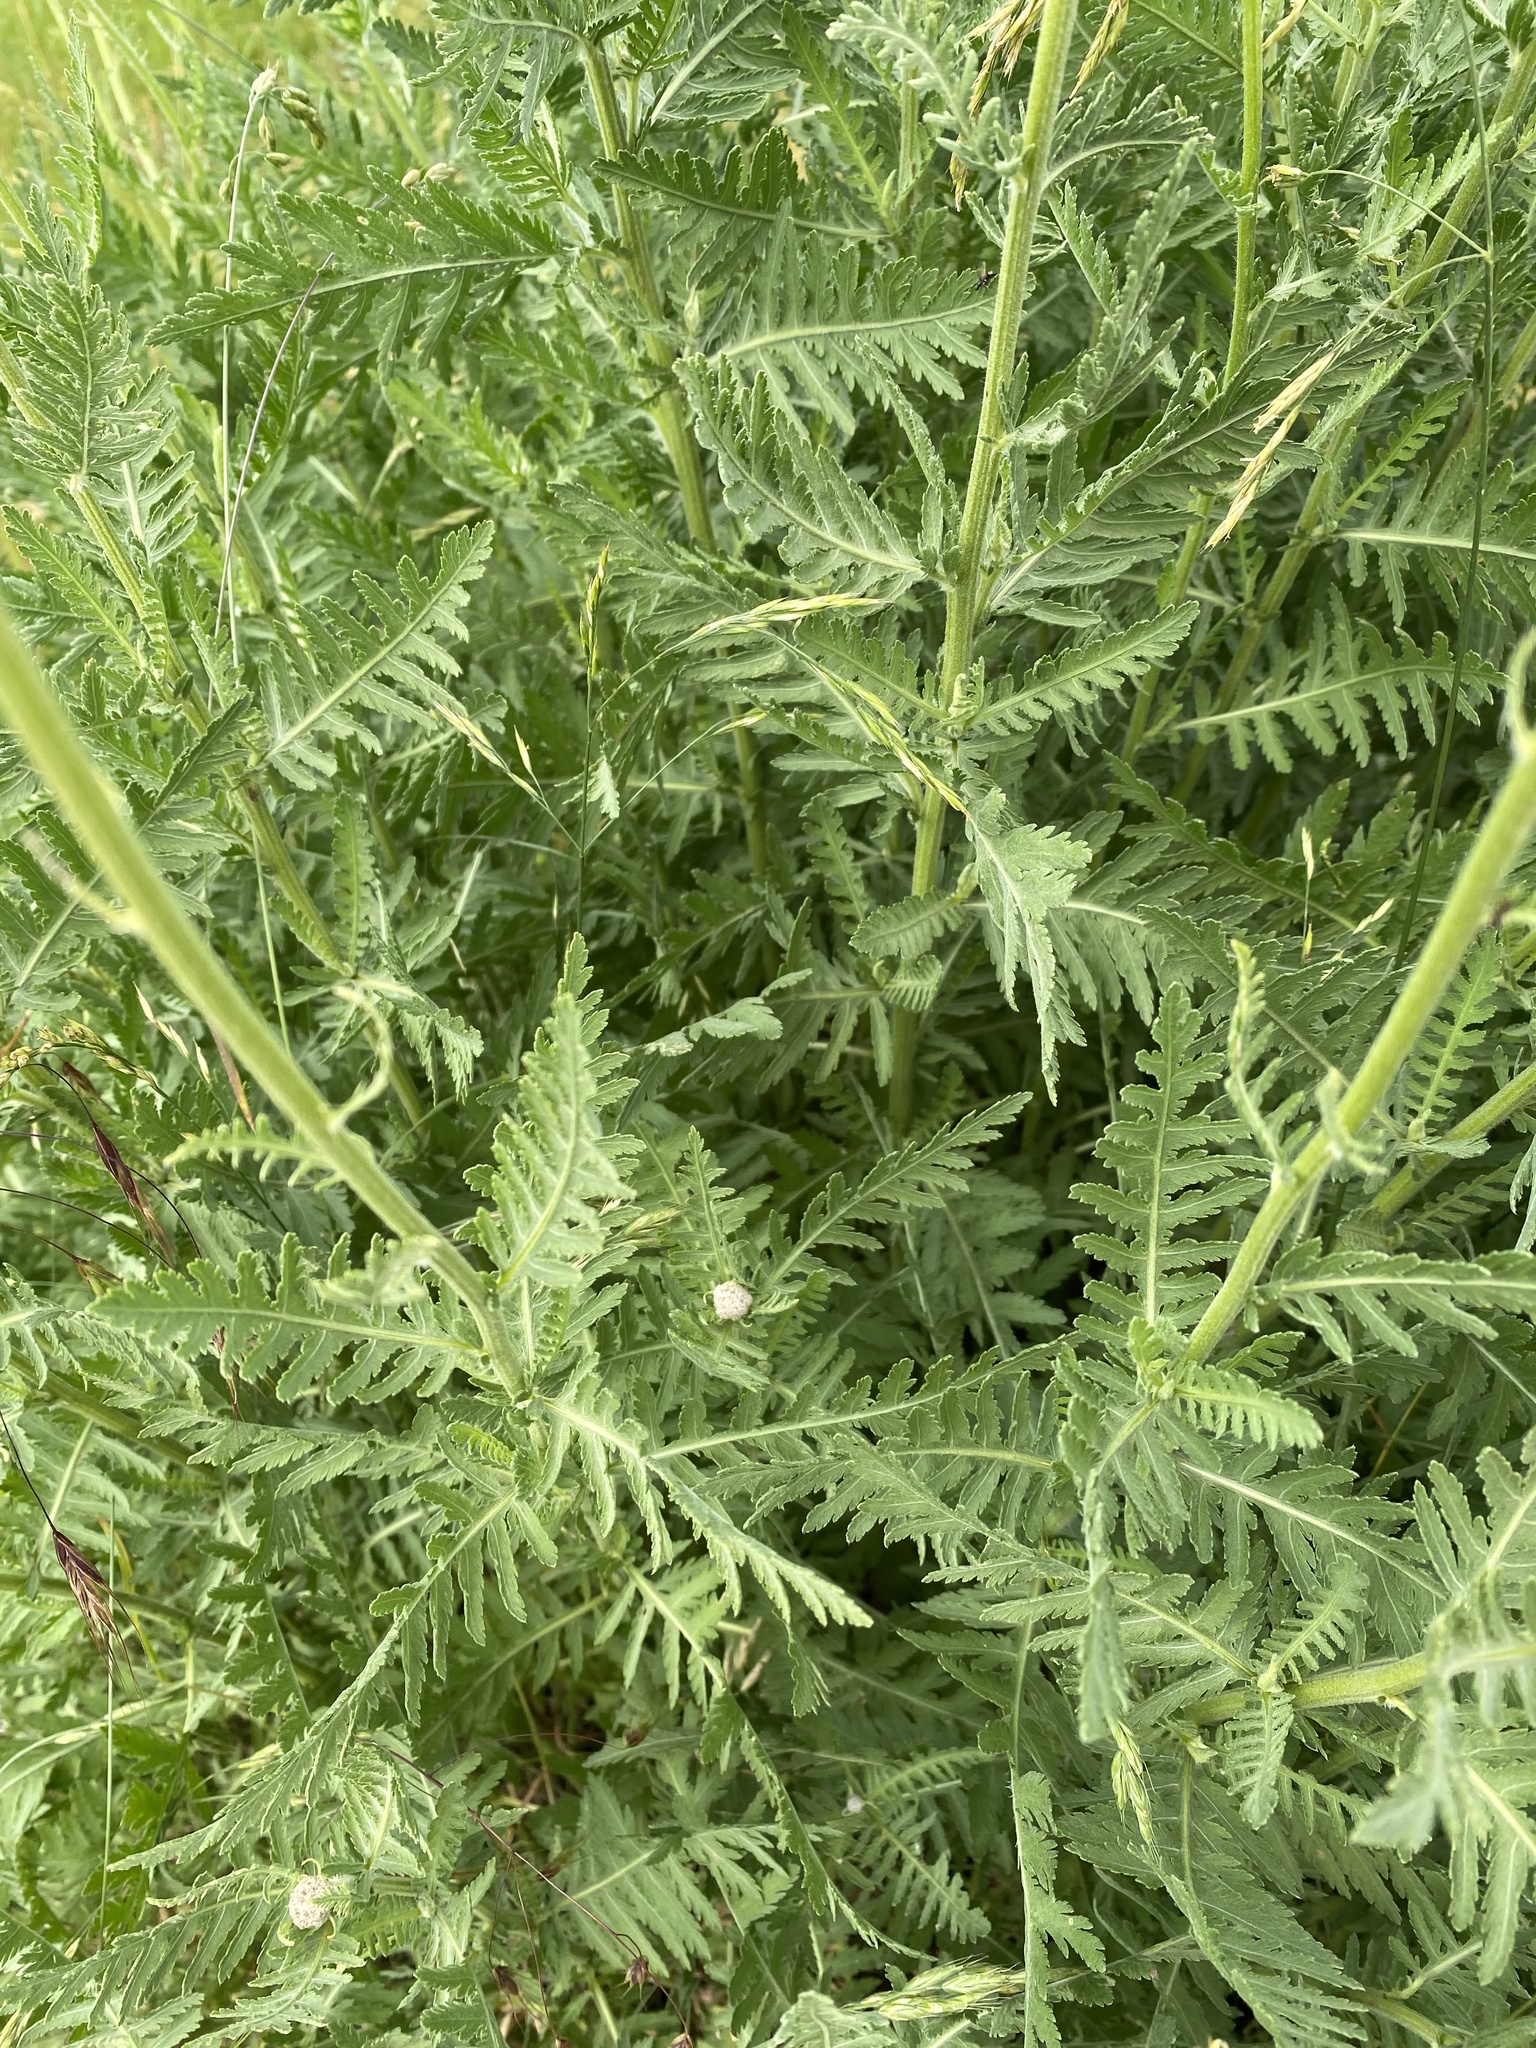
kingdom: Plantae
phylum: Tracheophyta
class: Magnoliopsida
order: Asterales
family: Asteraceae
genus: Achillea
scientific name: Achillea filipendulina
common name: Fernleaf yarrow
